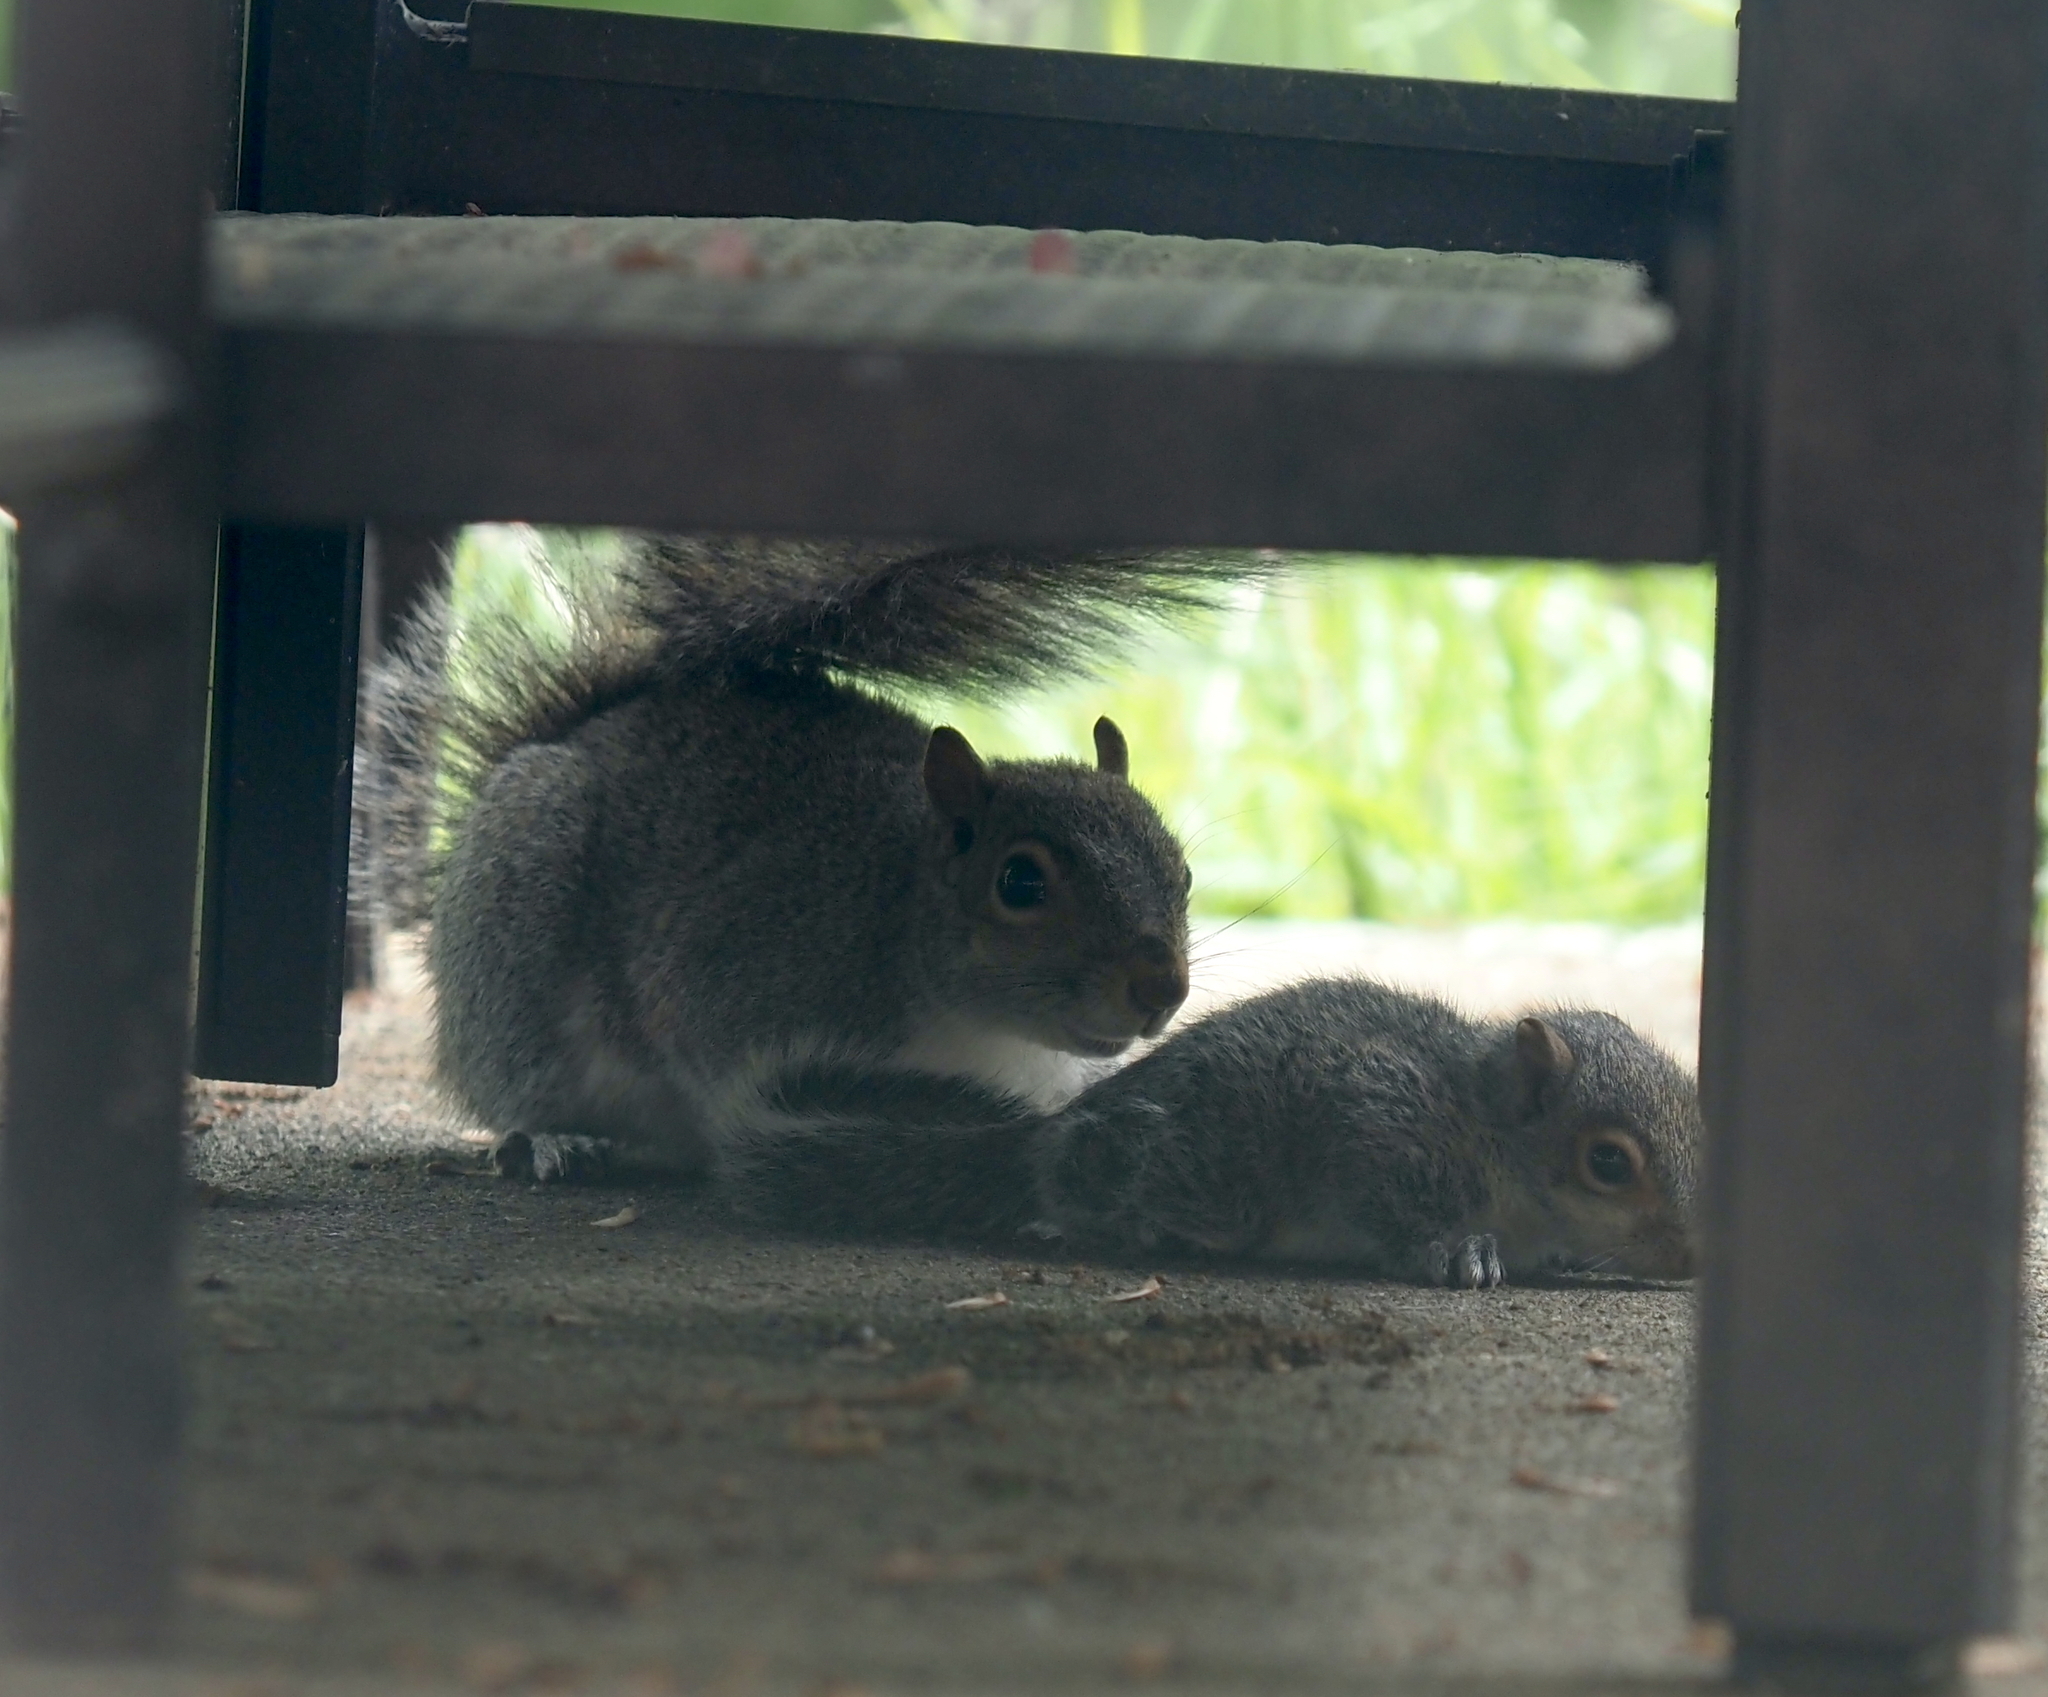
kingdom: Animalia
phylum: Chordata
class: Mammalia
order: Rodentia
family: Sciuridae
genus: Sciurus
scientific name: Sciurus carolinensis
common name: Eastern gray squirrel
